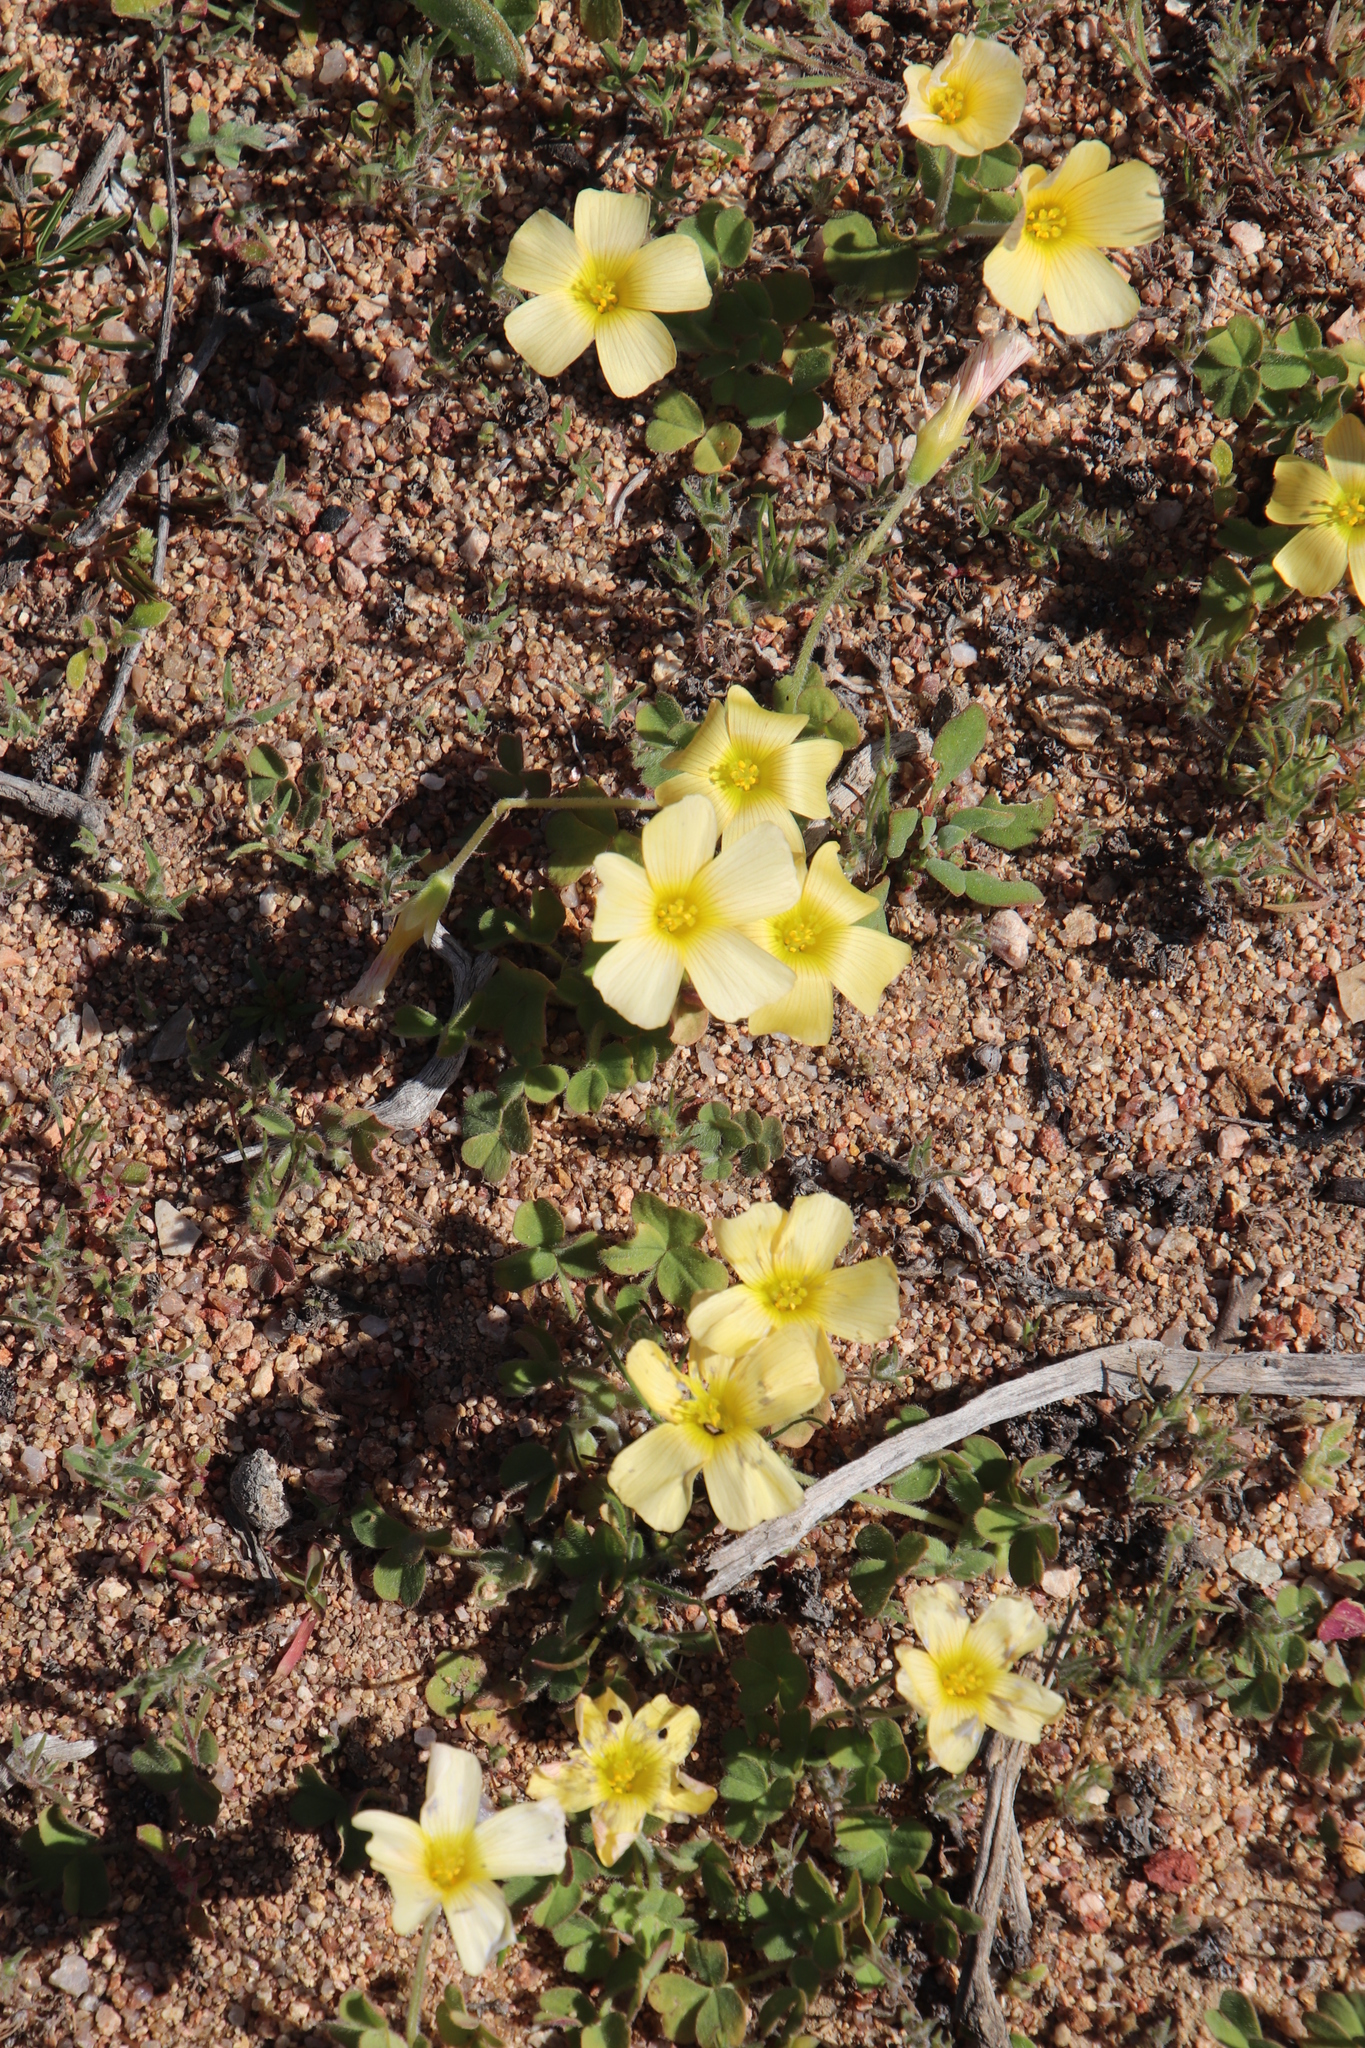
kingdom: Plantae
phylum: Tracheophyta
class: Magnoliopsida
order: Oxalidales
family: Oxalidaceae
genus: Oxalis
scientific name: Oxalis obtusa
